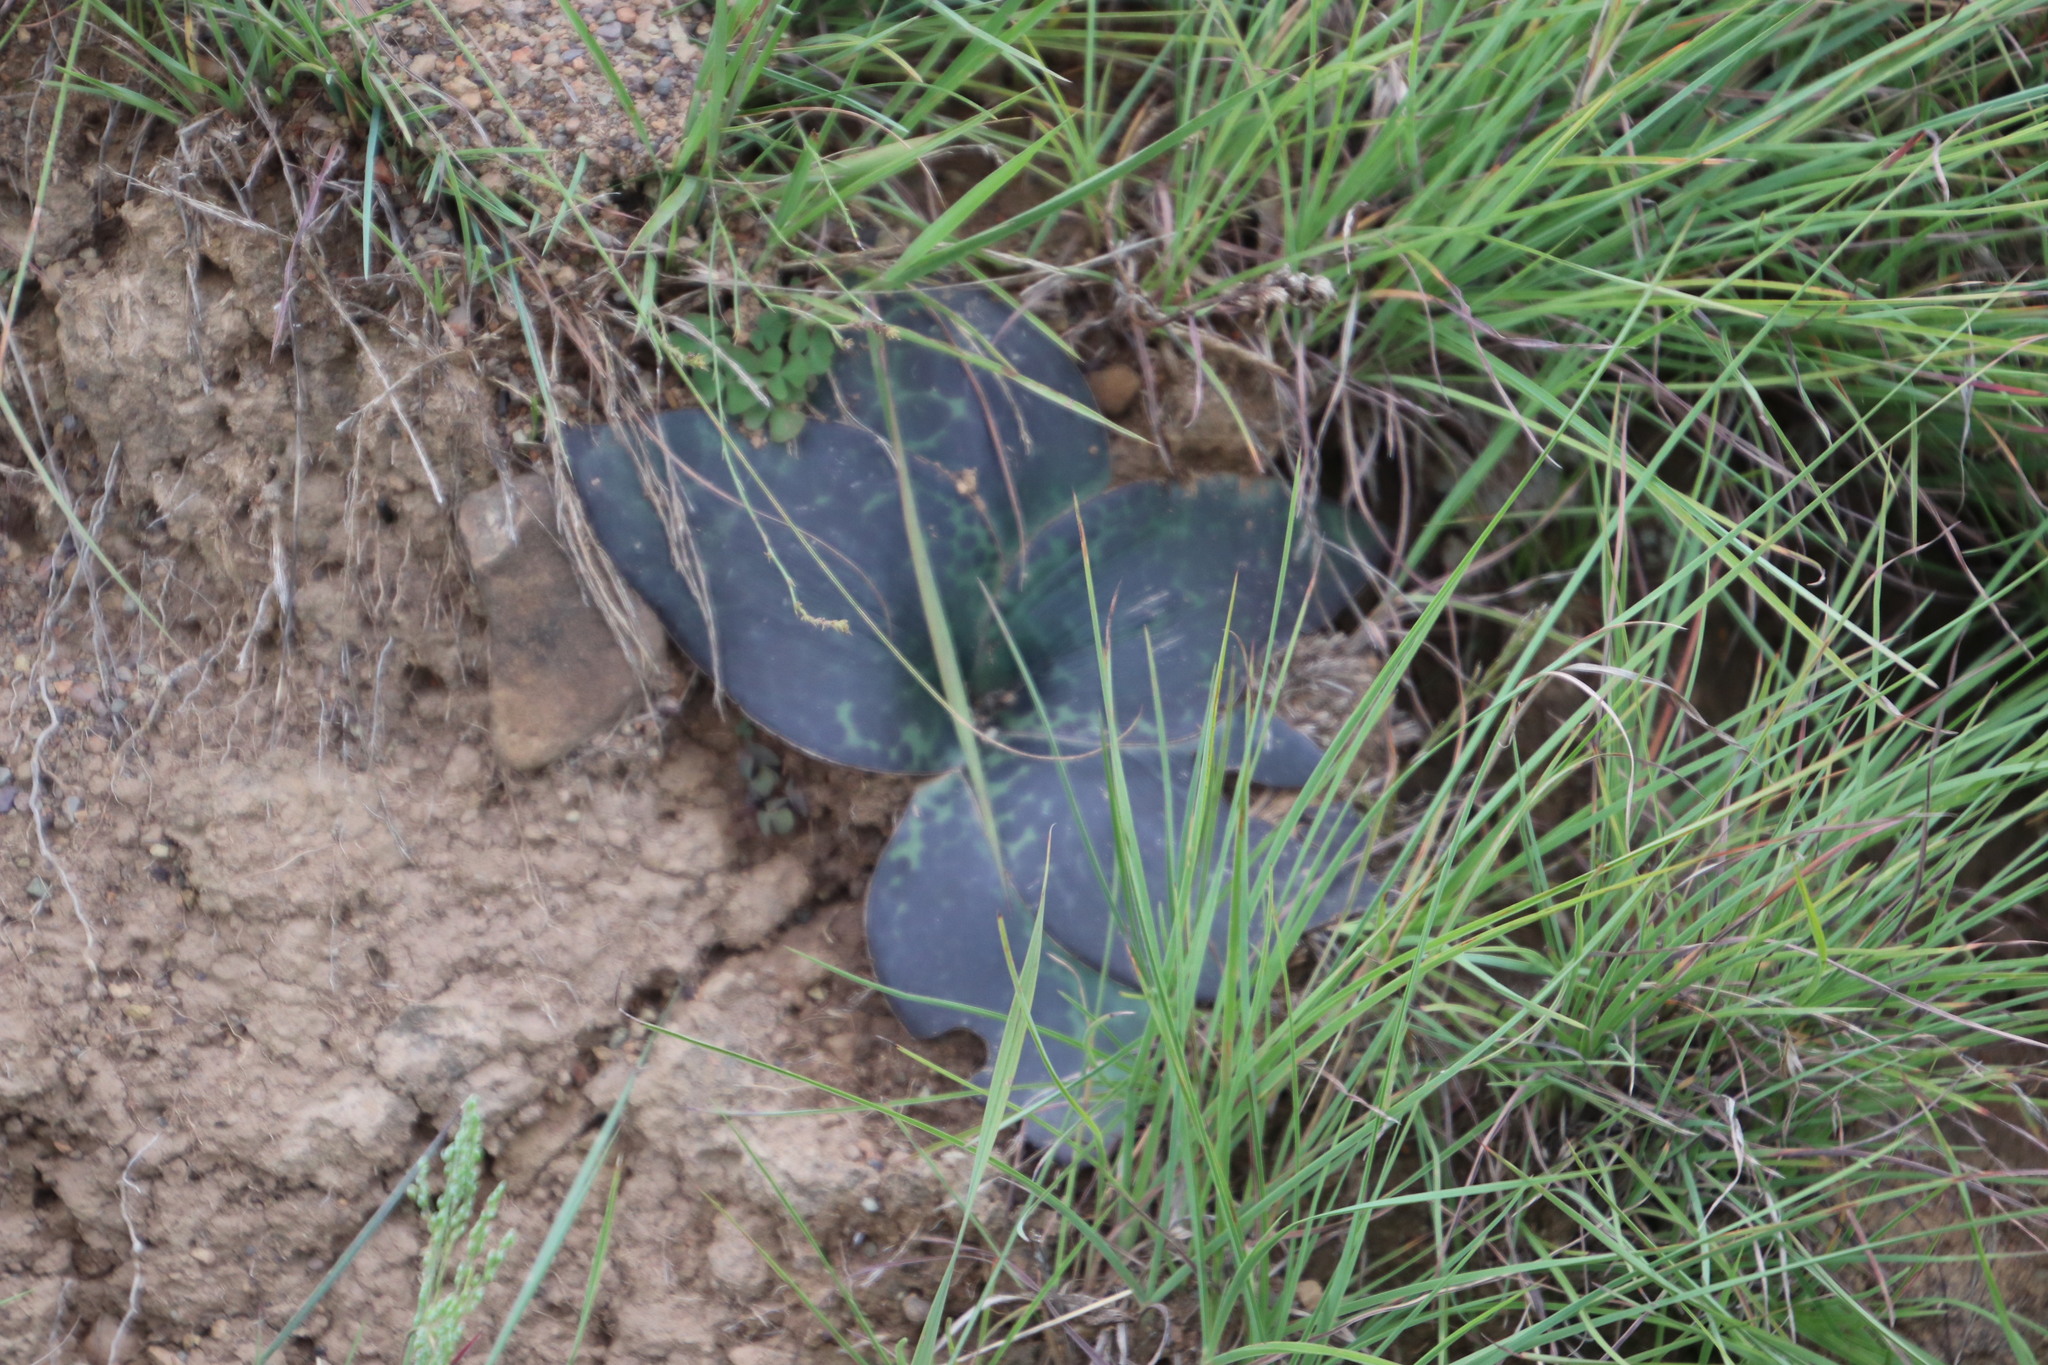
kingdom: Plantae
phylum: Tracheophyta
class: Liliopsida
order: Asparagales
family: Asparagaceae
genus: Ledebouria
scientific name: Ledebouria ovatifolia
